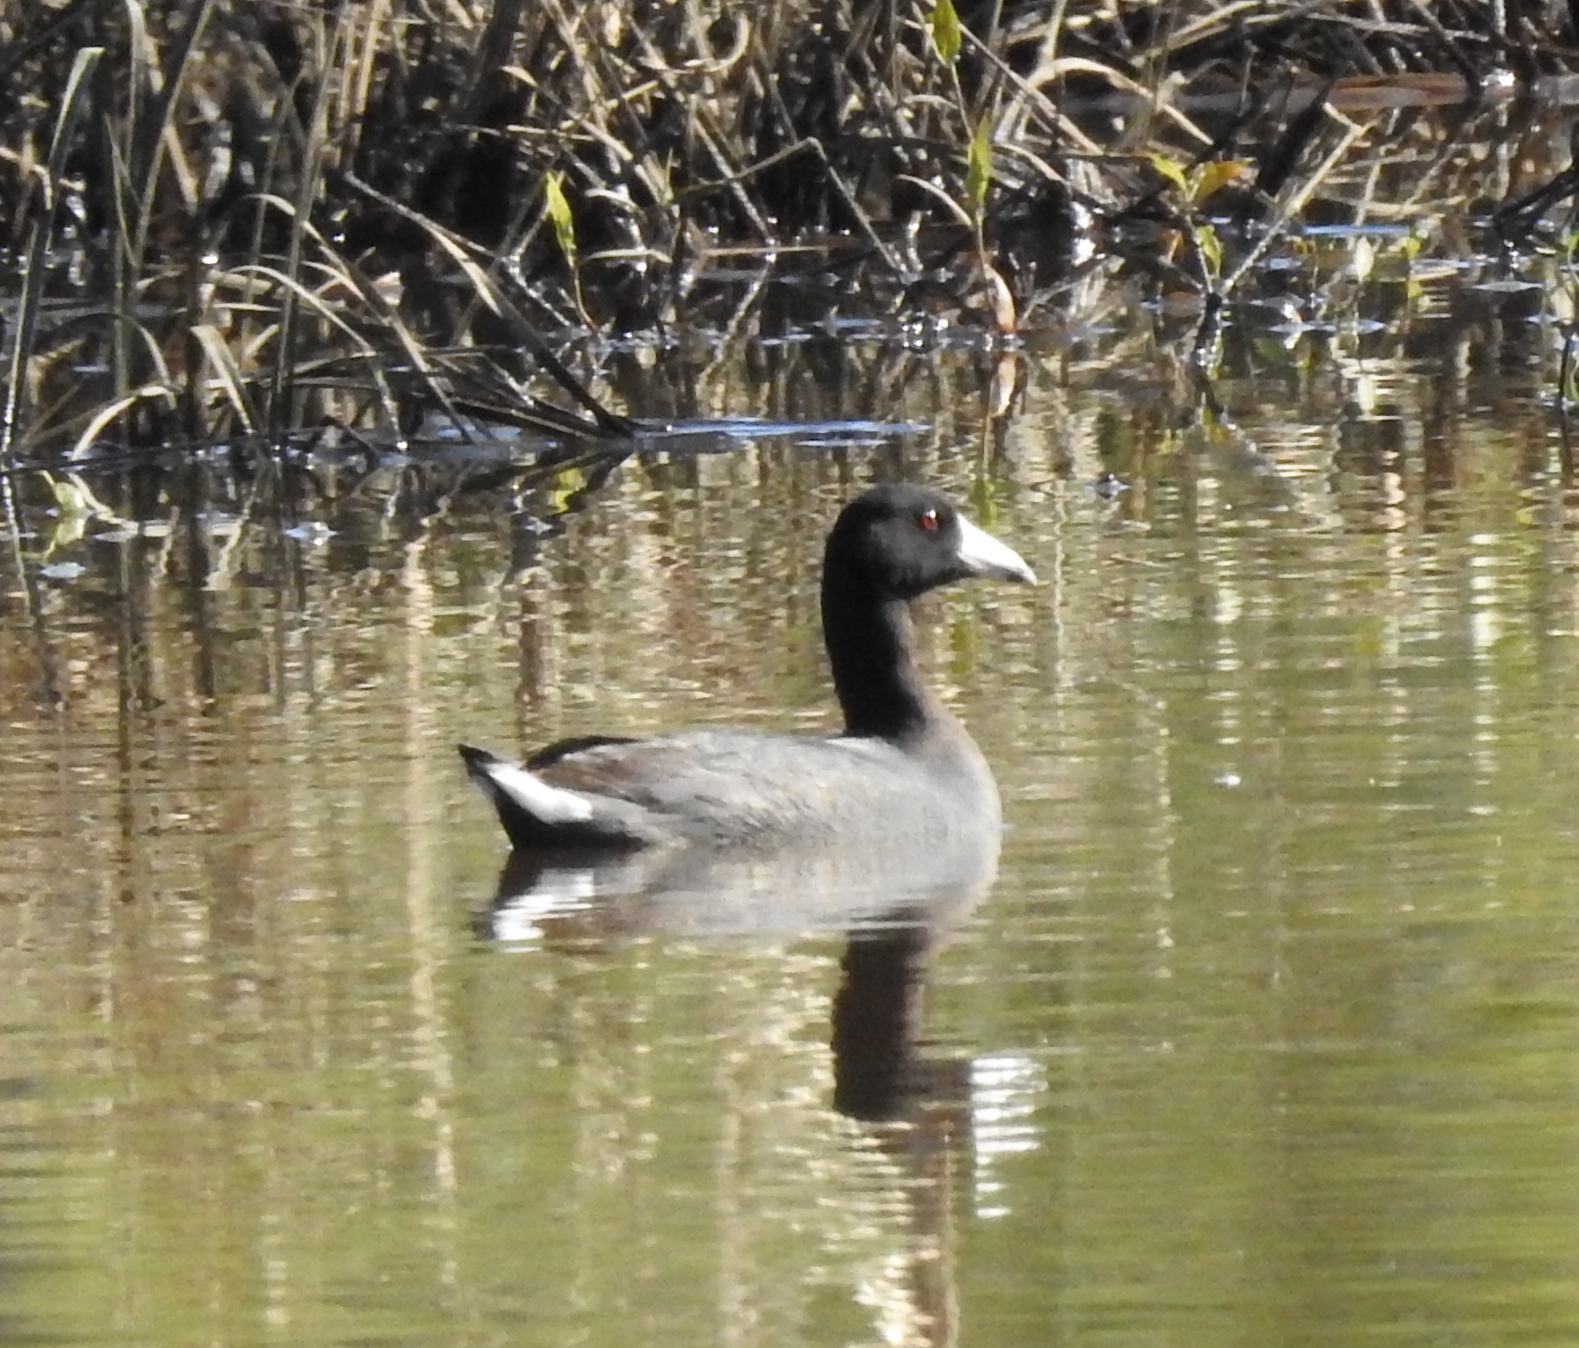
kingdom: Animalia
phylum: Chordata
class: Aves
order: Gruiformes
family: Rallidae
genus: Fulica
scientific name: Fulica americana
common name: American coot
